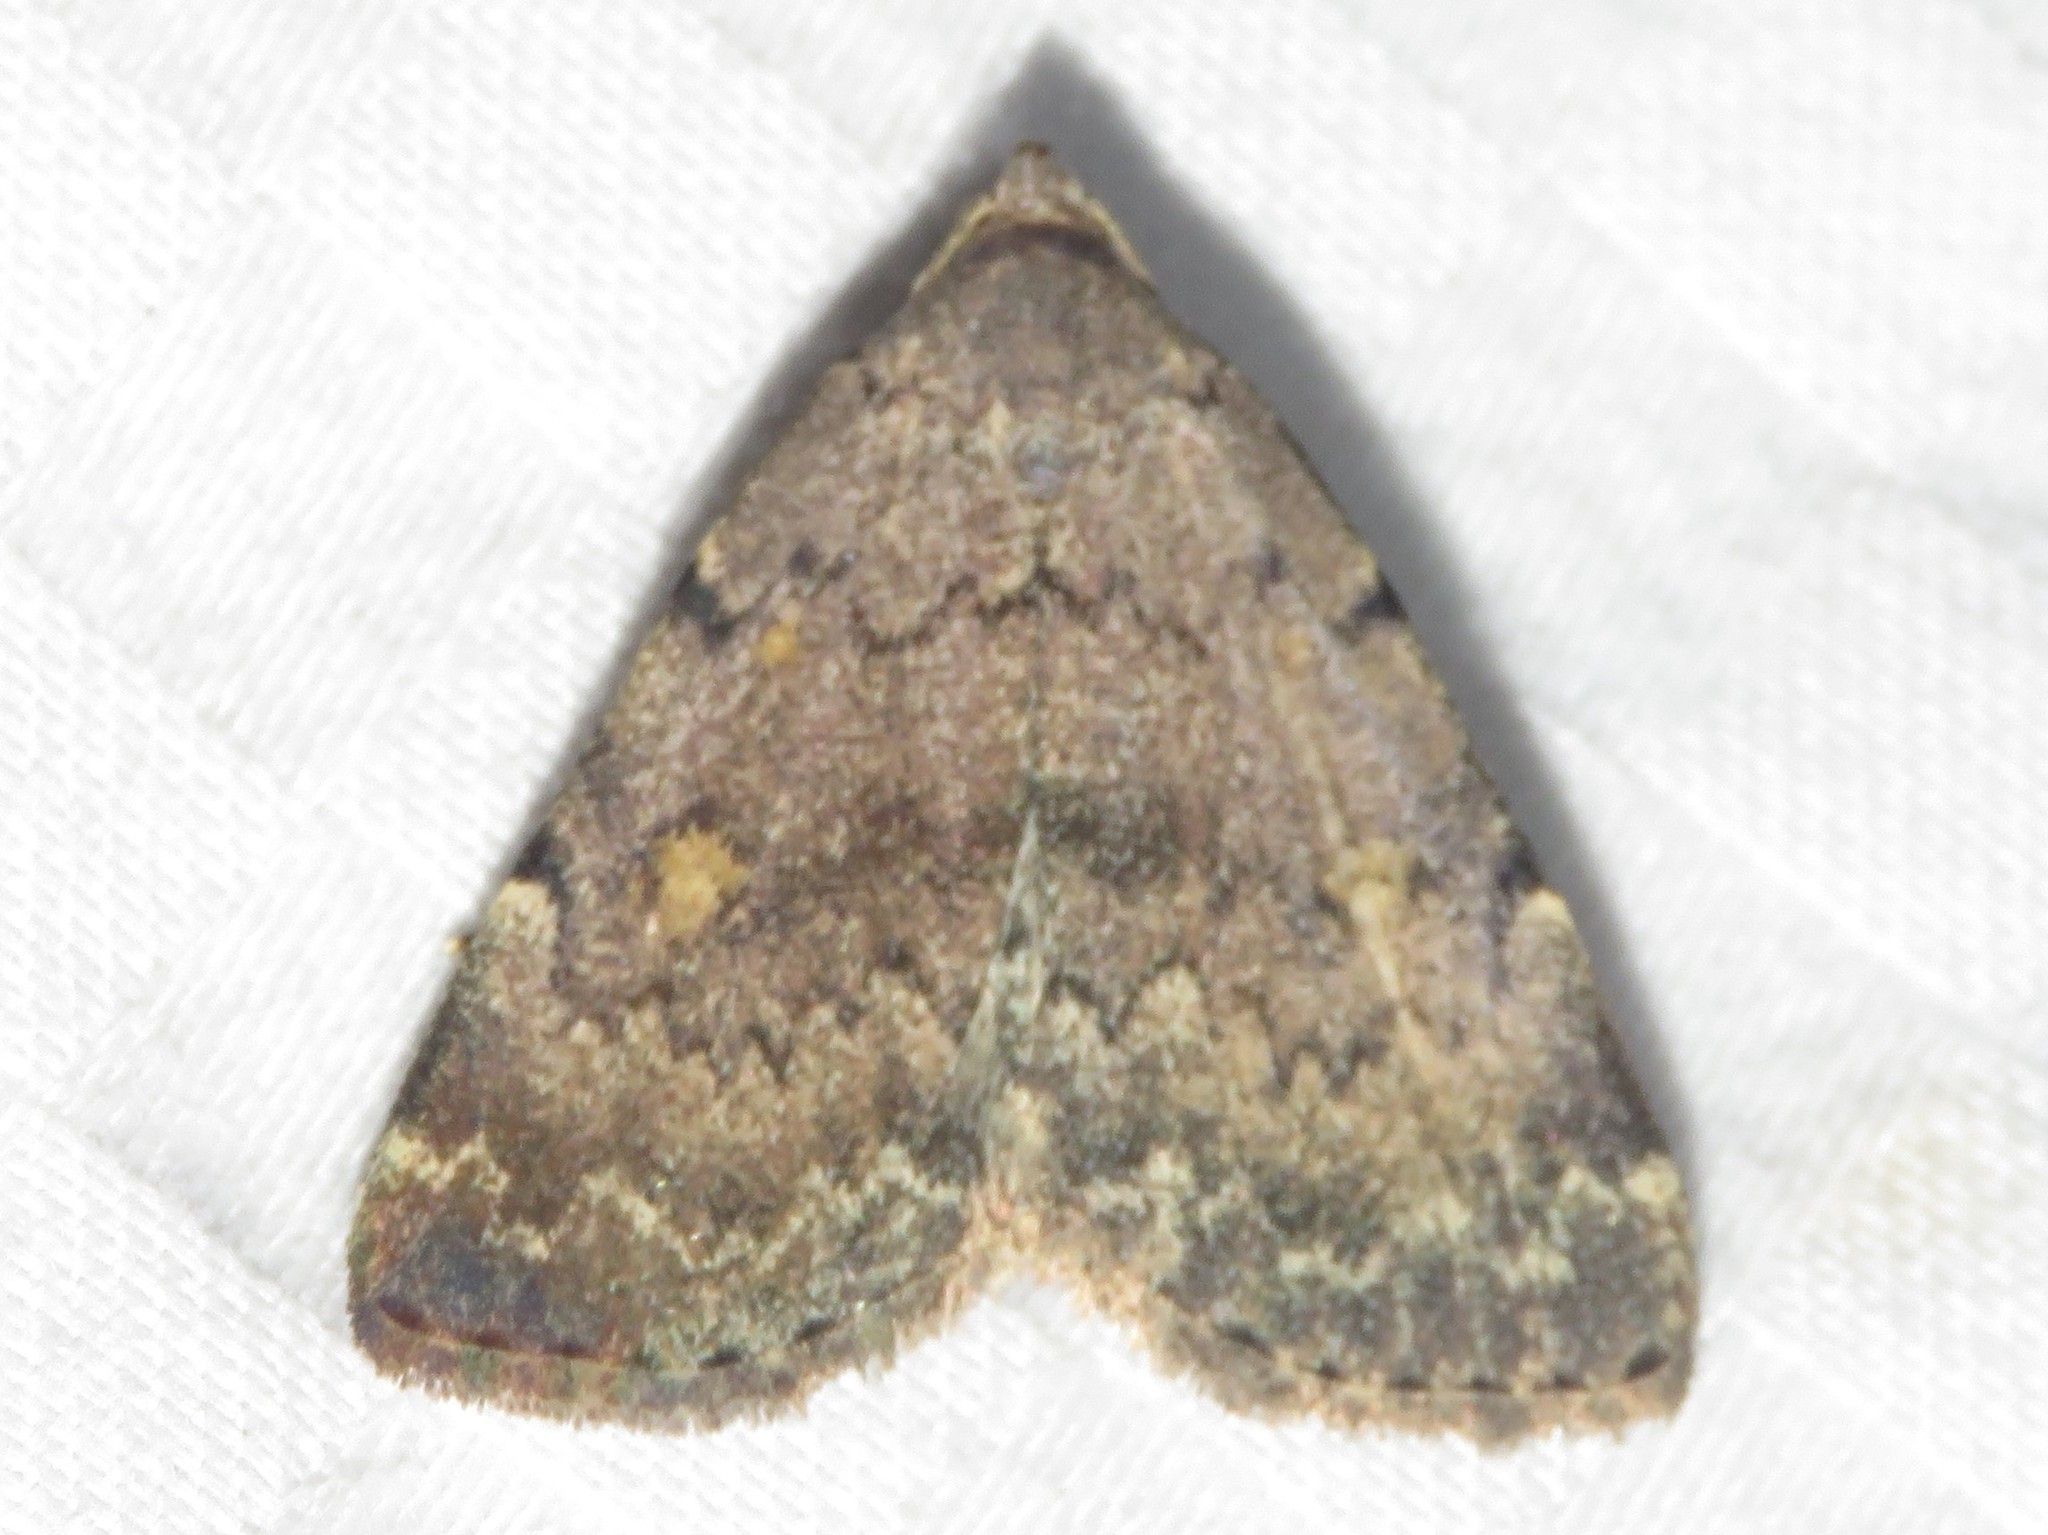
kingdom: Animalia
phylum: Arthropoda
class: Insecta
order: Lepidoptera
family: Erebidae
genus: Idia
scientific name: Idia aemula
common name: Common idia moth
